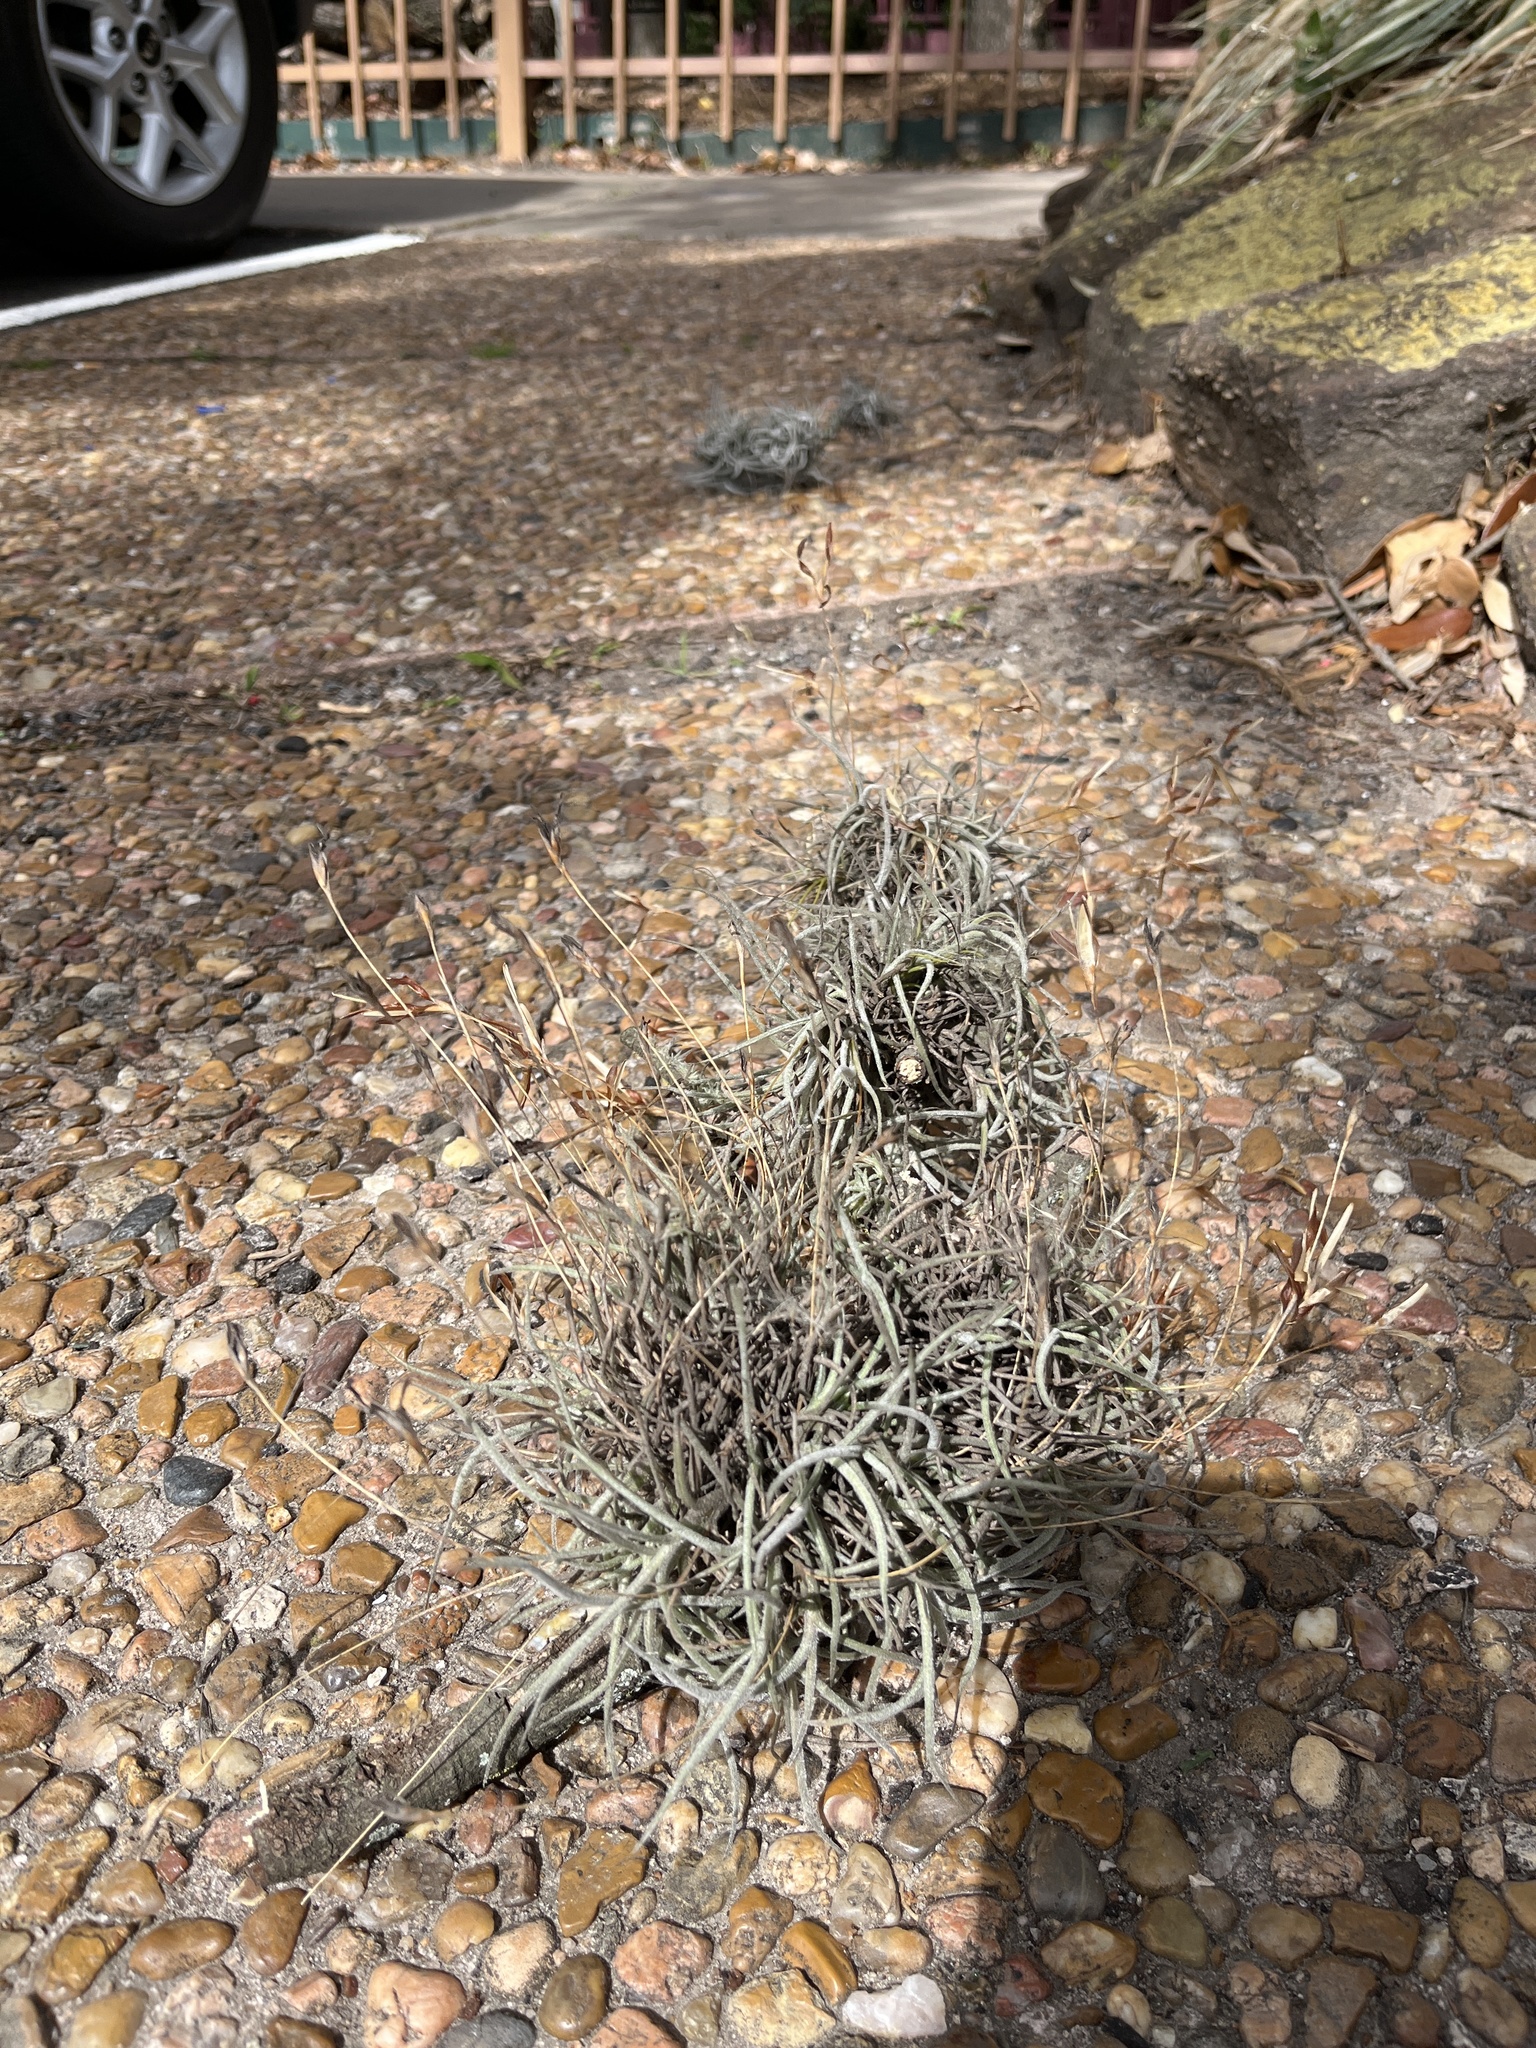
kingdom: Plantae
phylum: Tracheophyta
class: Liliopsida
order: Poales
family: Bromeliaceae
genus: Tillandsia
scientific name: Tillandsia recurvata
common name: Small ballmoss
